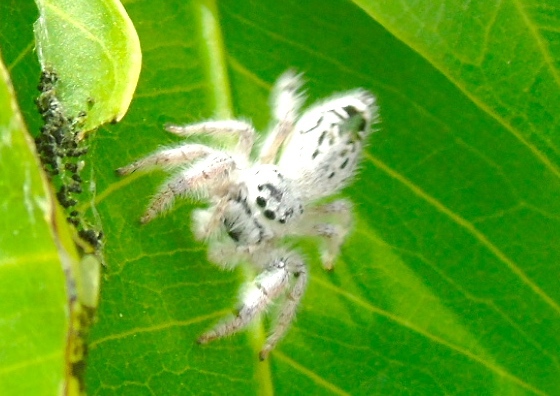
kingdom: Animalia
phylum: Arthropoda
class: Arachnida
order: Araneae
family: Salticidae
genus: Paraphidippus
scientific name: Paraphidippus fartilis
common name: Jumping spiders
